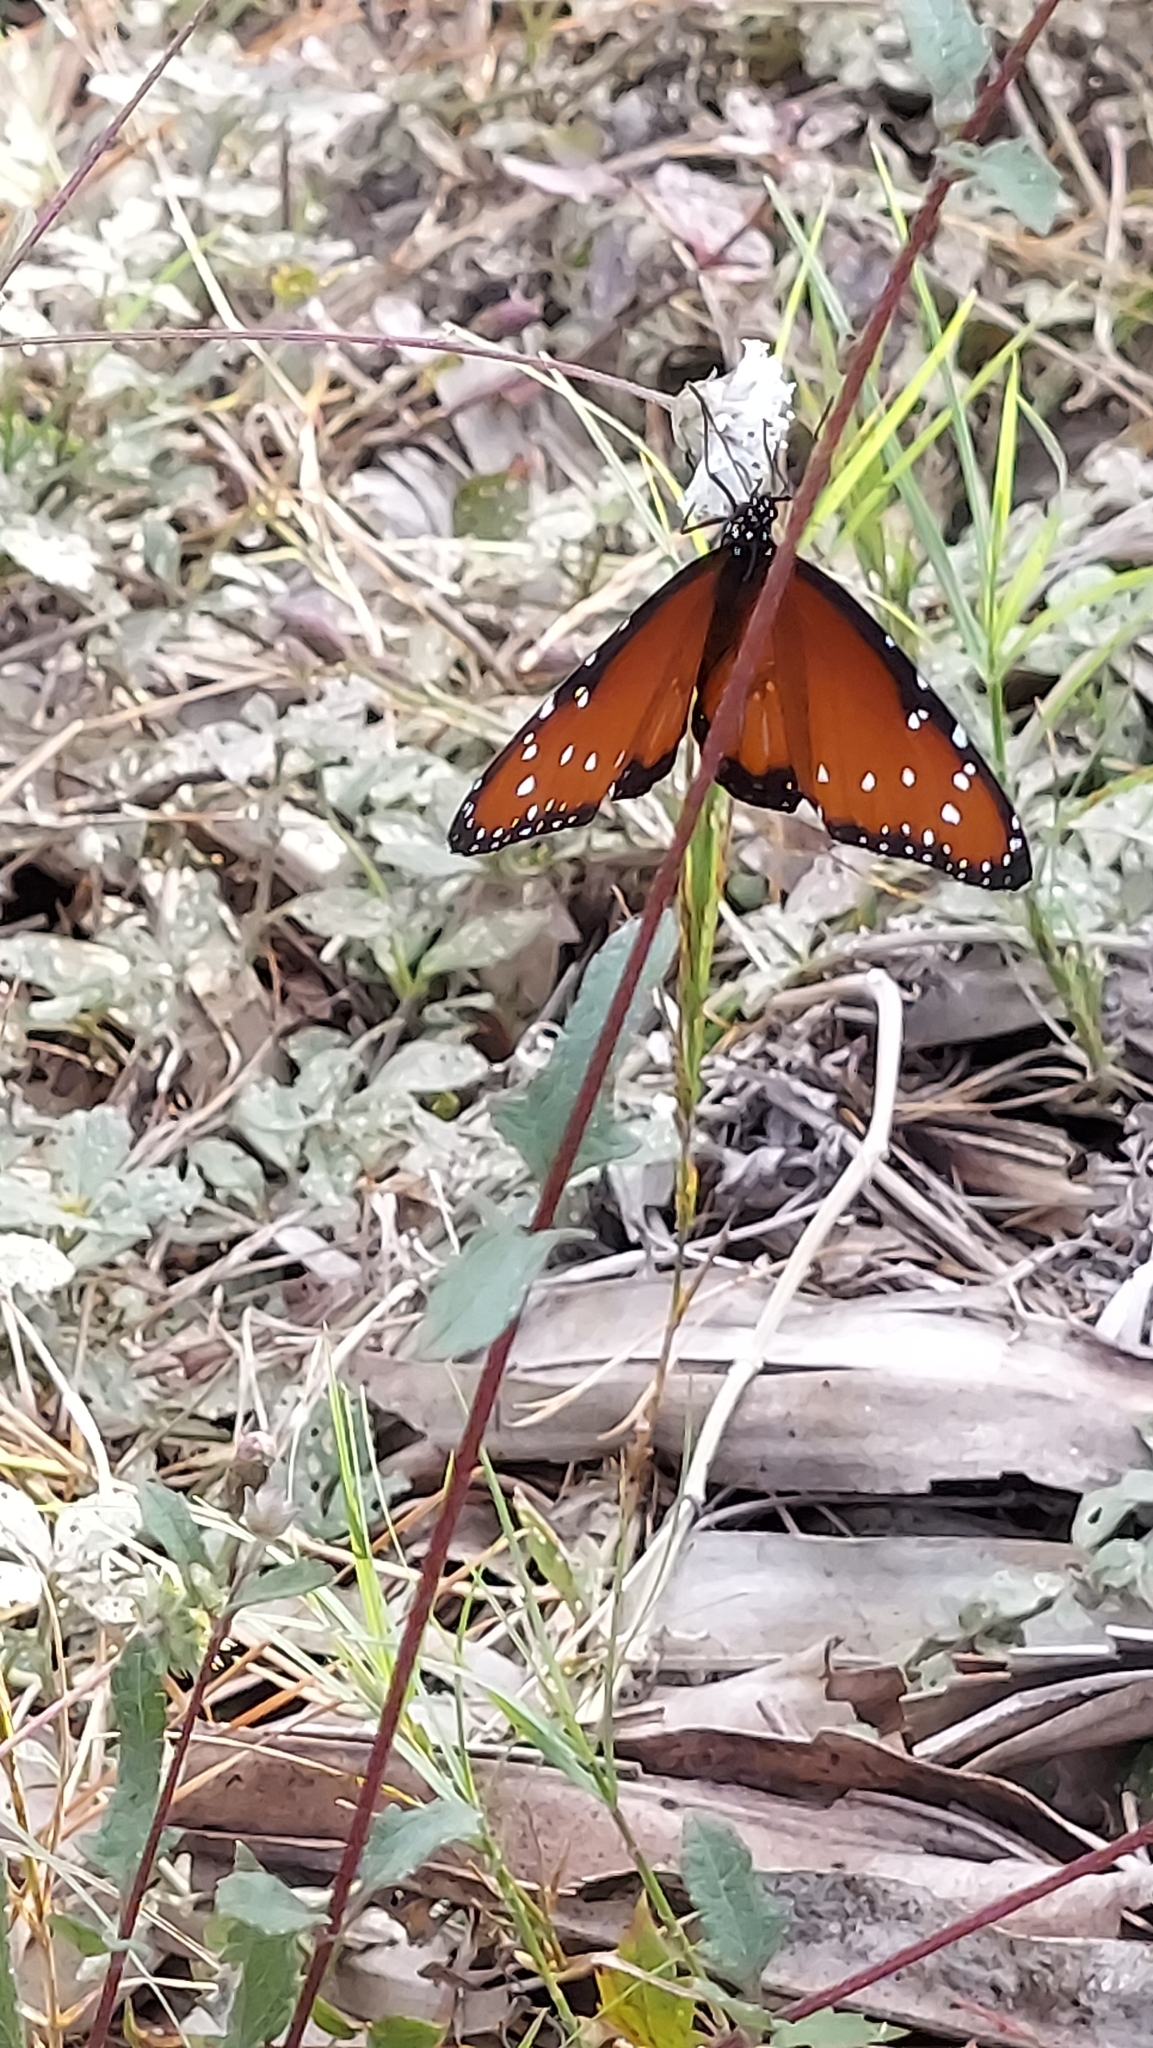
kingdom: Animalia
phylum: Arthropoda
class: Insecta
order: Lepidoptera
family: Nymphalidae
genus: Danaus
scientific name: Danaus gilippus
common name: Queen
